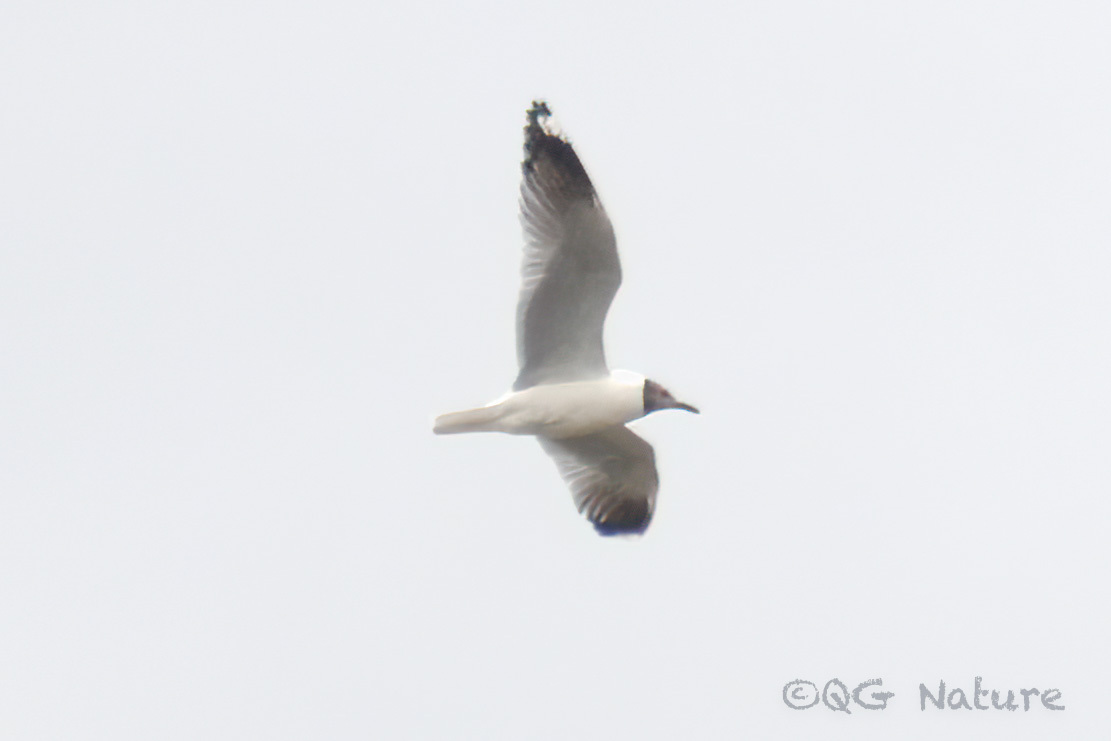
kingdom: Animalia
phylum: Chordata
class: Aves
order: Charadriiformes
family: Laridae
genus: Chroicocephalus
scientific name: Chroicocephalus brunnicephalus
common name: Brown-headed gull
